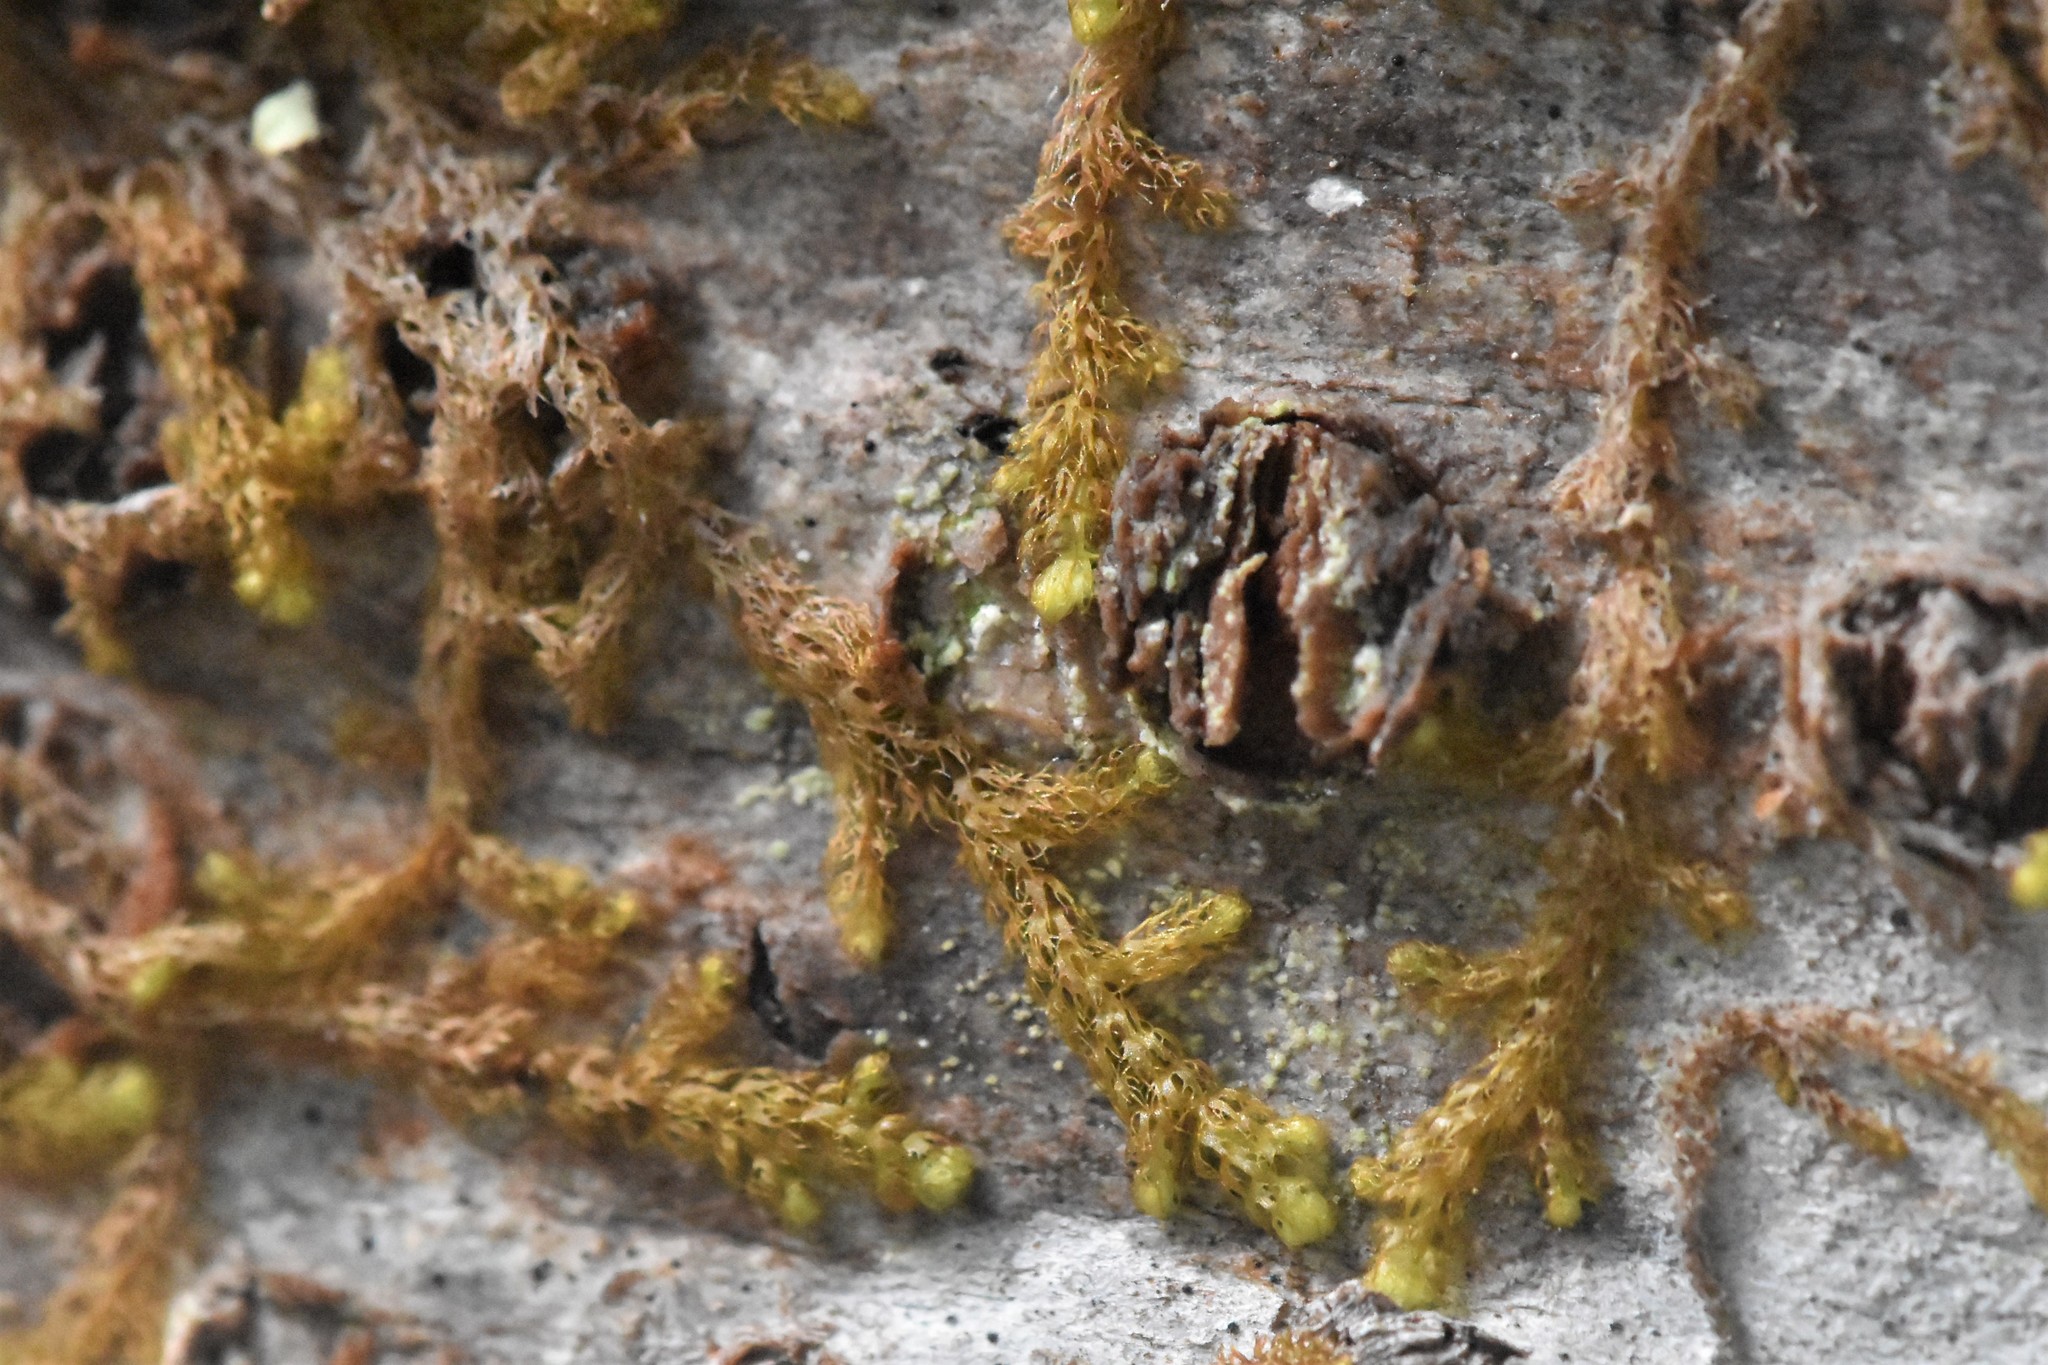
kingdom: Plantae
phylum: Marchantiophyta
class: Jungermanniopsida
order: Ptilidiales
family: Ptilidiaceae
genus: Ptilidium
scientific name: Ptilidium californicum
